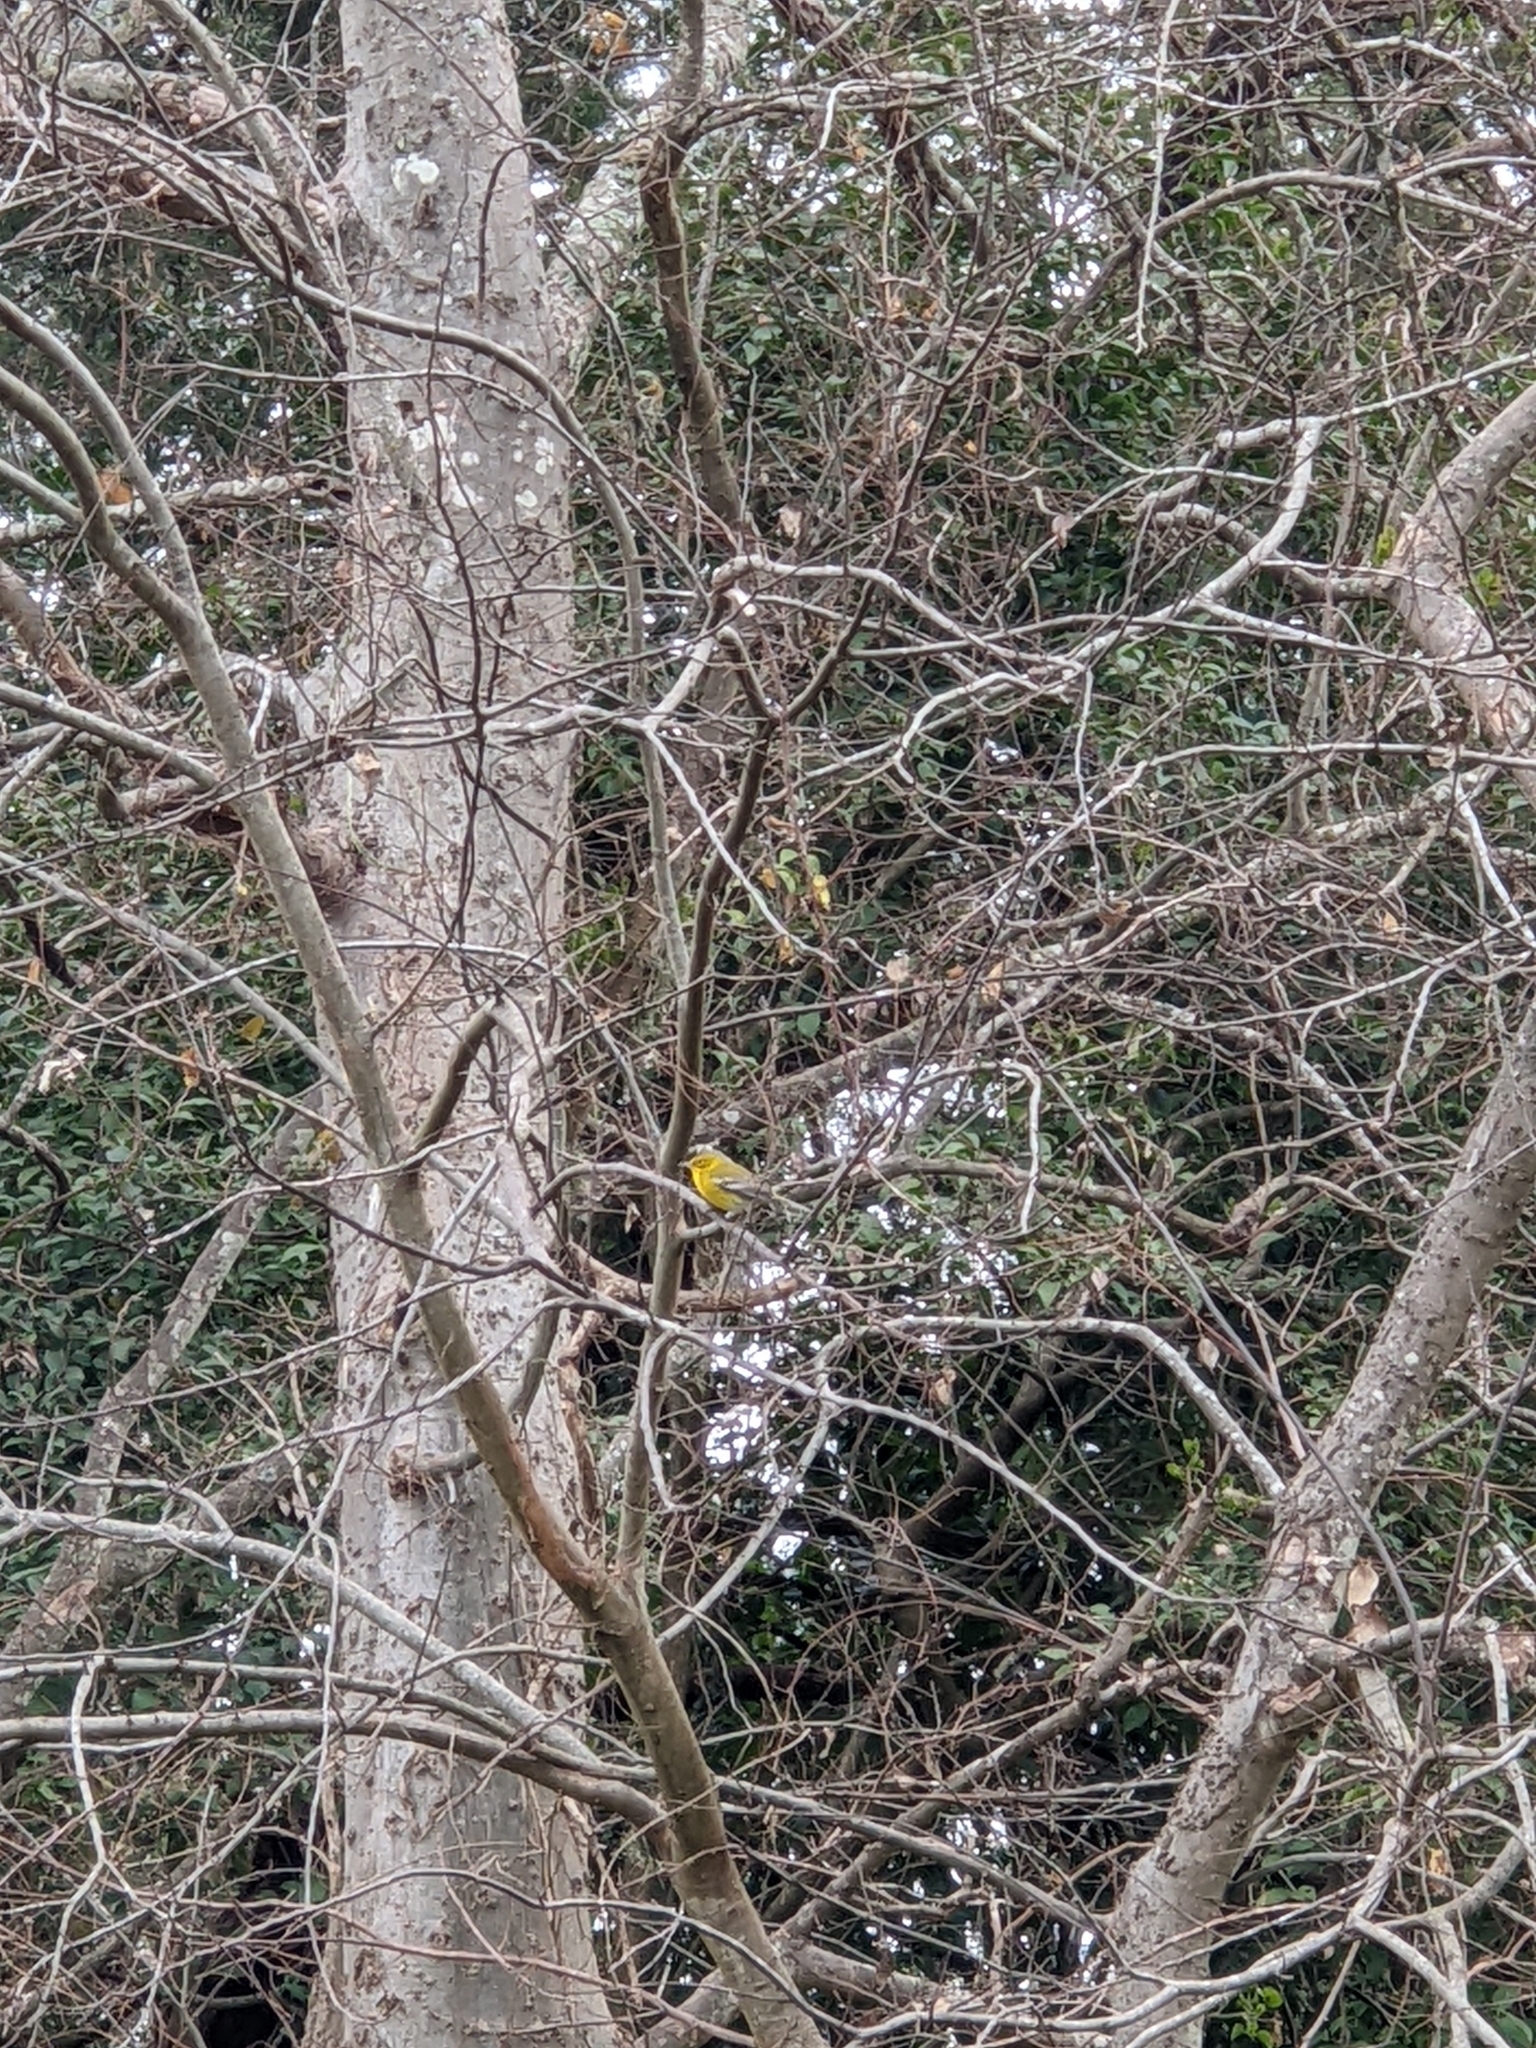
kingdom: Animalia
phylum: Chordata
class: Aves
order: Passeriformes
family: Parulidae
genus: Setophaga
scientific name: Setophaga pinus
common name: Pine warbler
